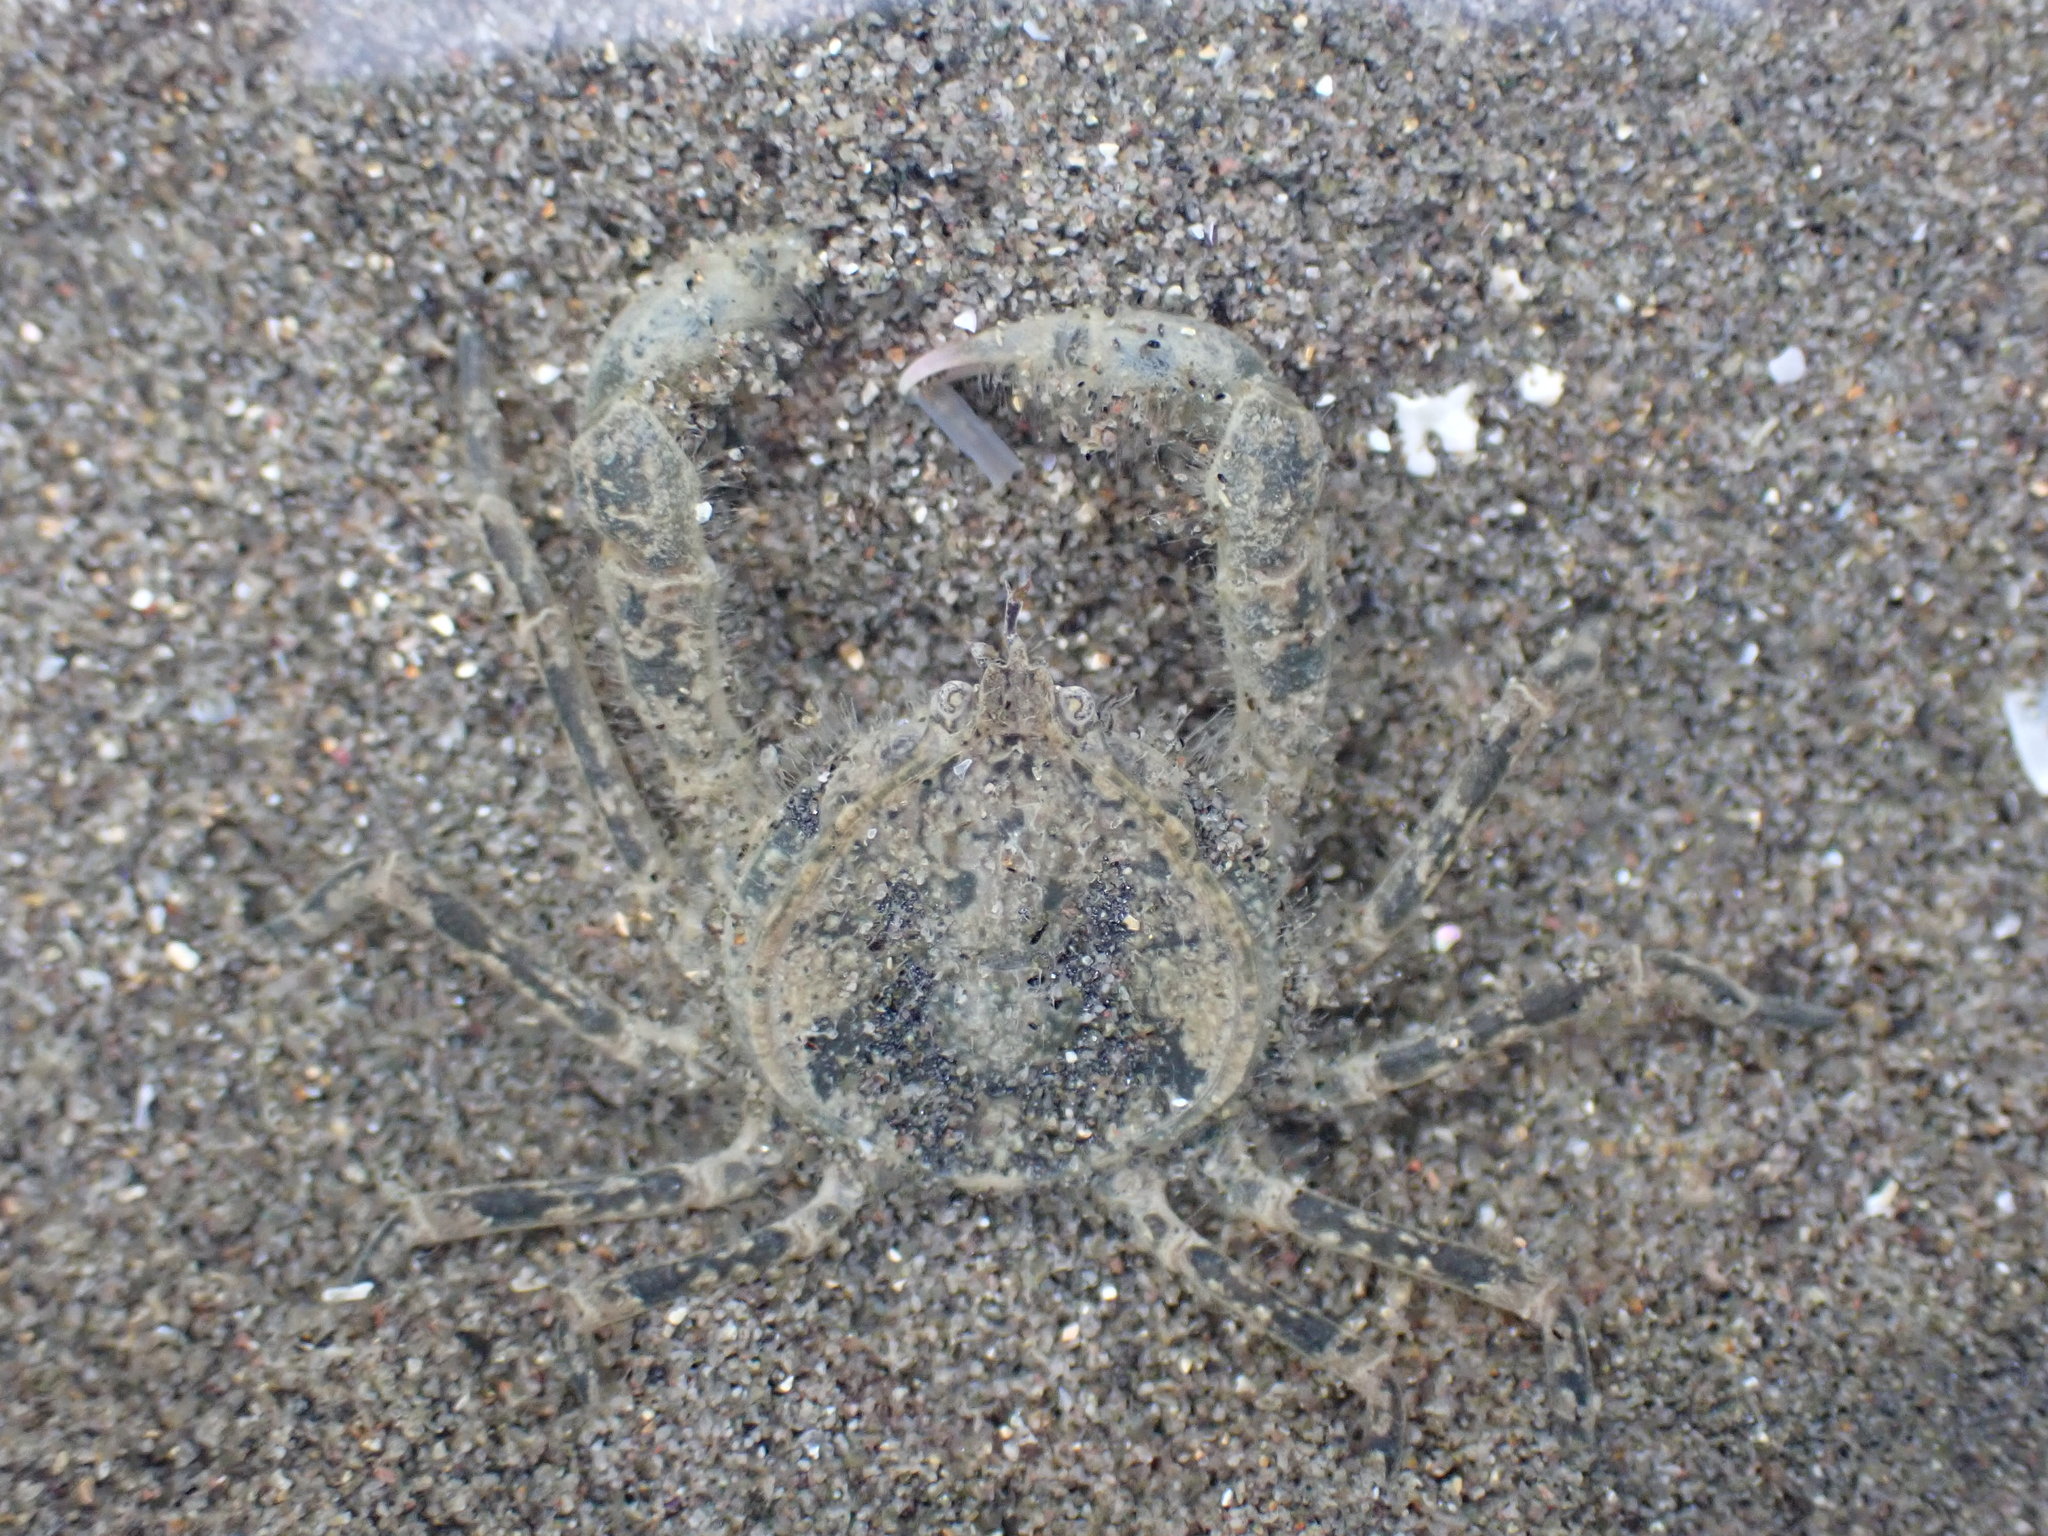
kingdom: Animalia
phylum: Arthropoda
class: Malacostraca
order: Decapoda
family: Hymenosomatidae
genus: Halicarcinus
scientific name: Halicarcinus whitei
